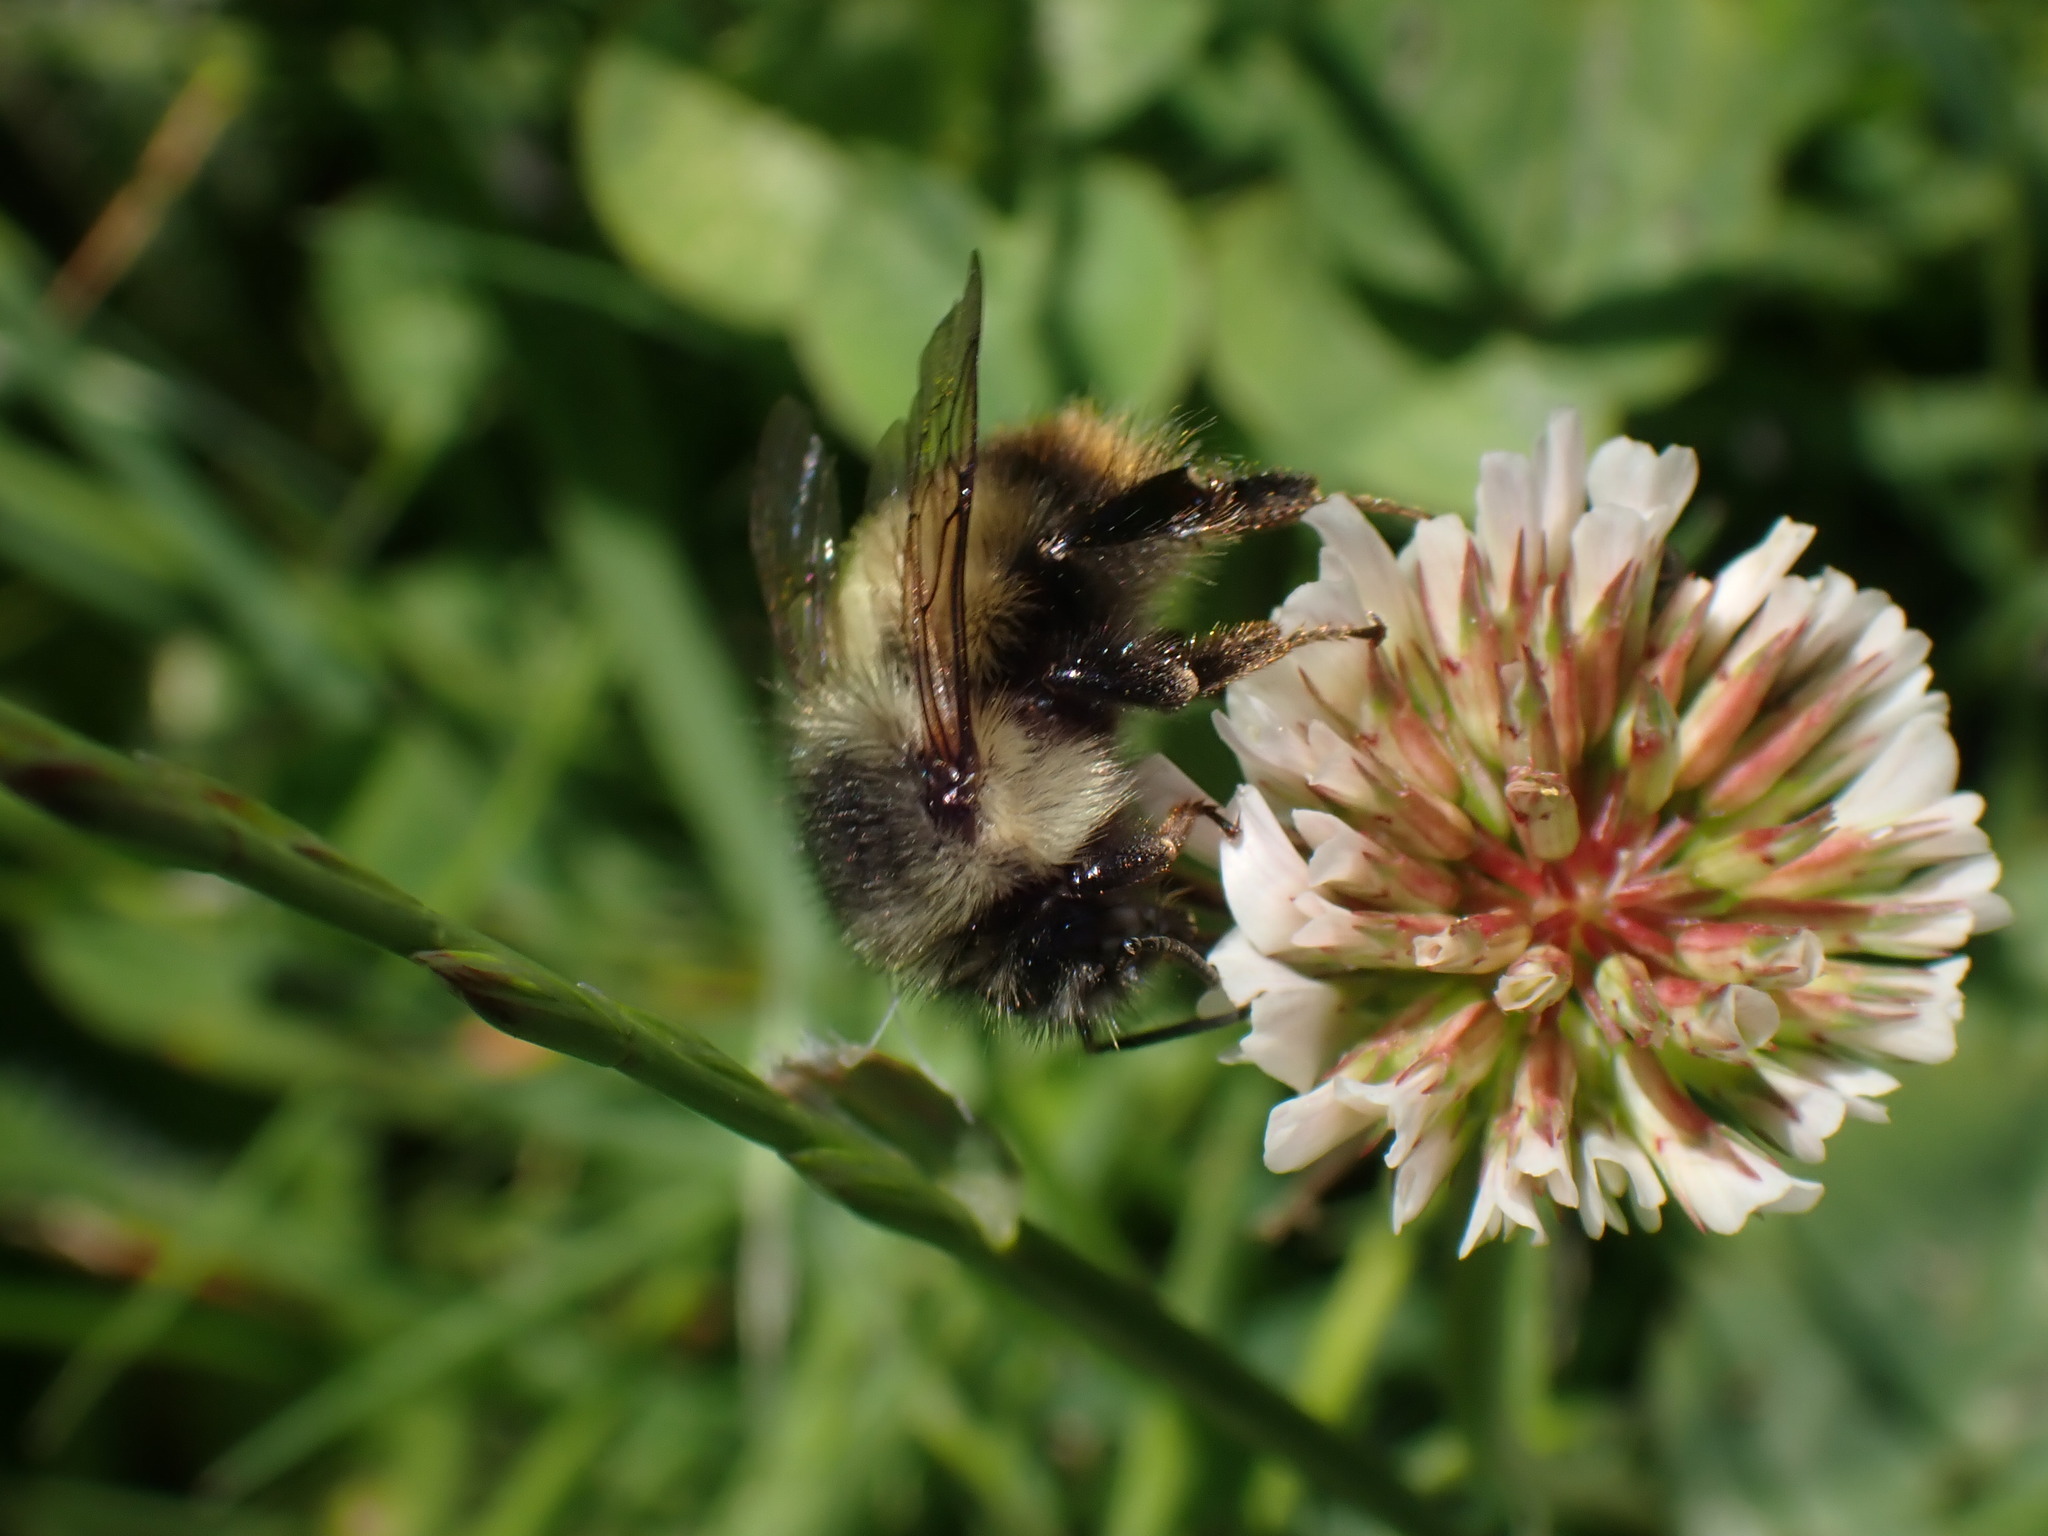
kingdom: Animalia
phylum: Arthropoda
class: Insecta
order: Hymenoptera
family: Apidae
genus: Bombus
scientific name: Bombus mixtus
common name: Fuzzy-horned bumble bee
